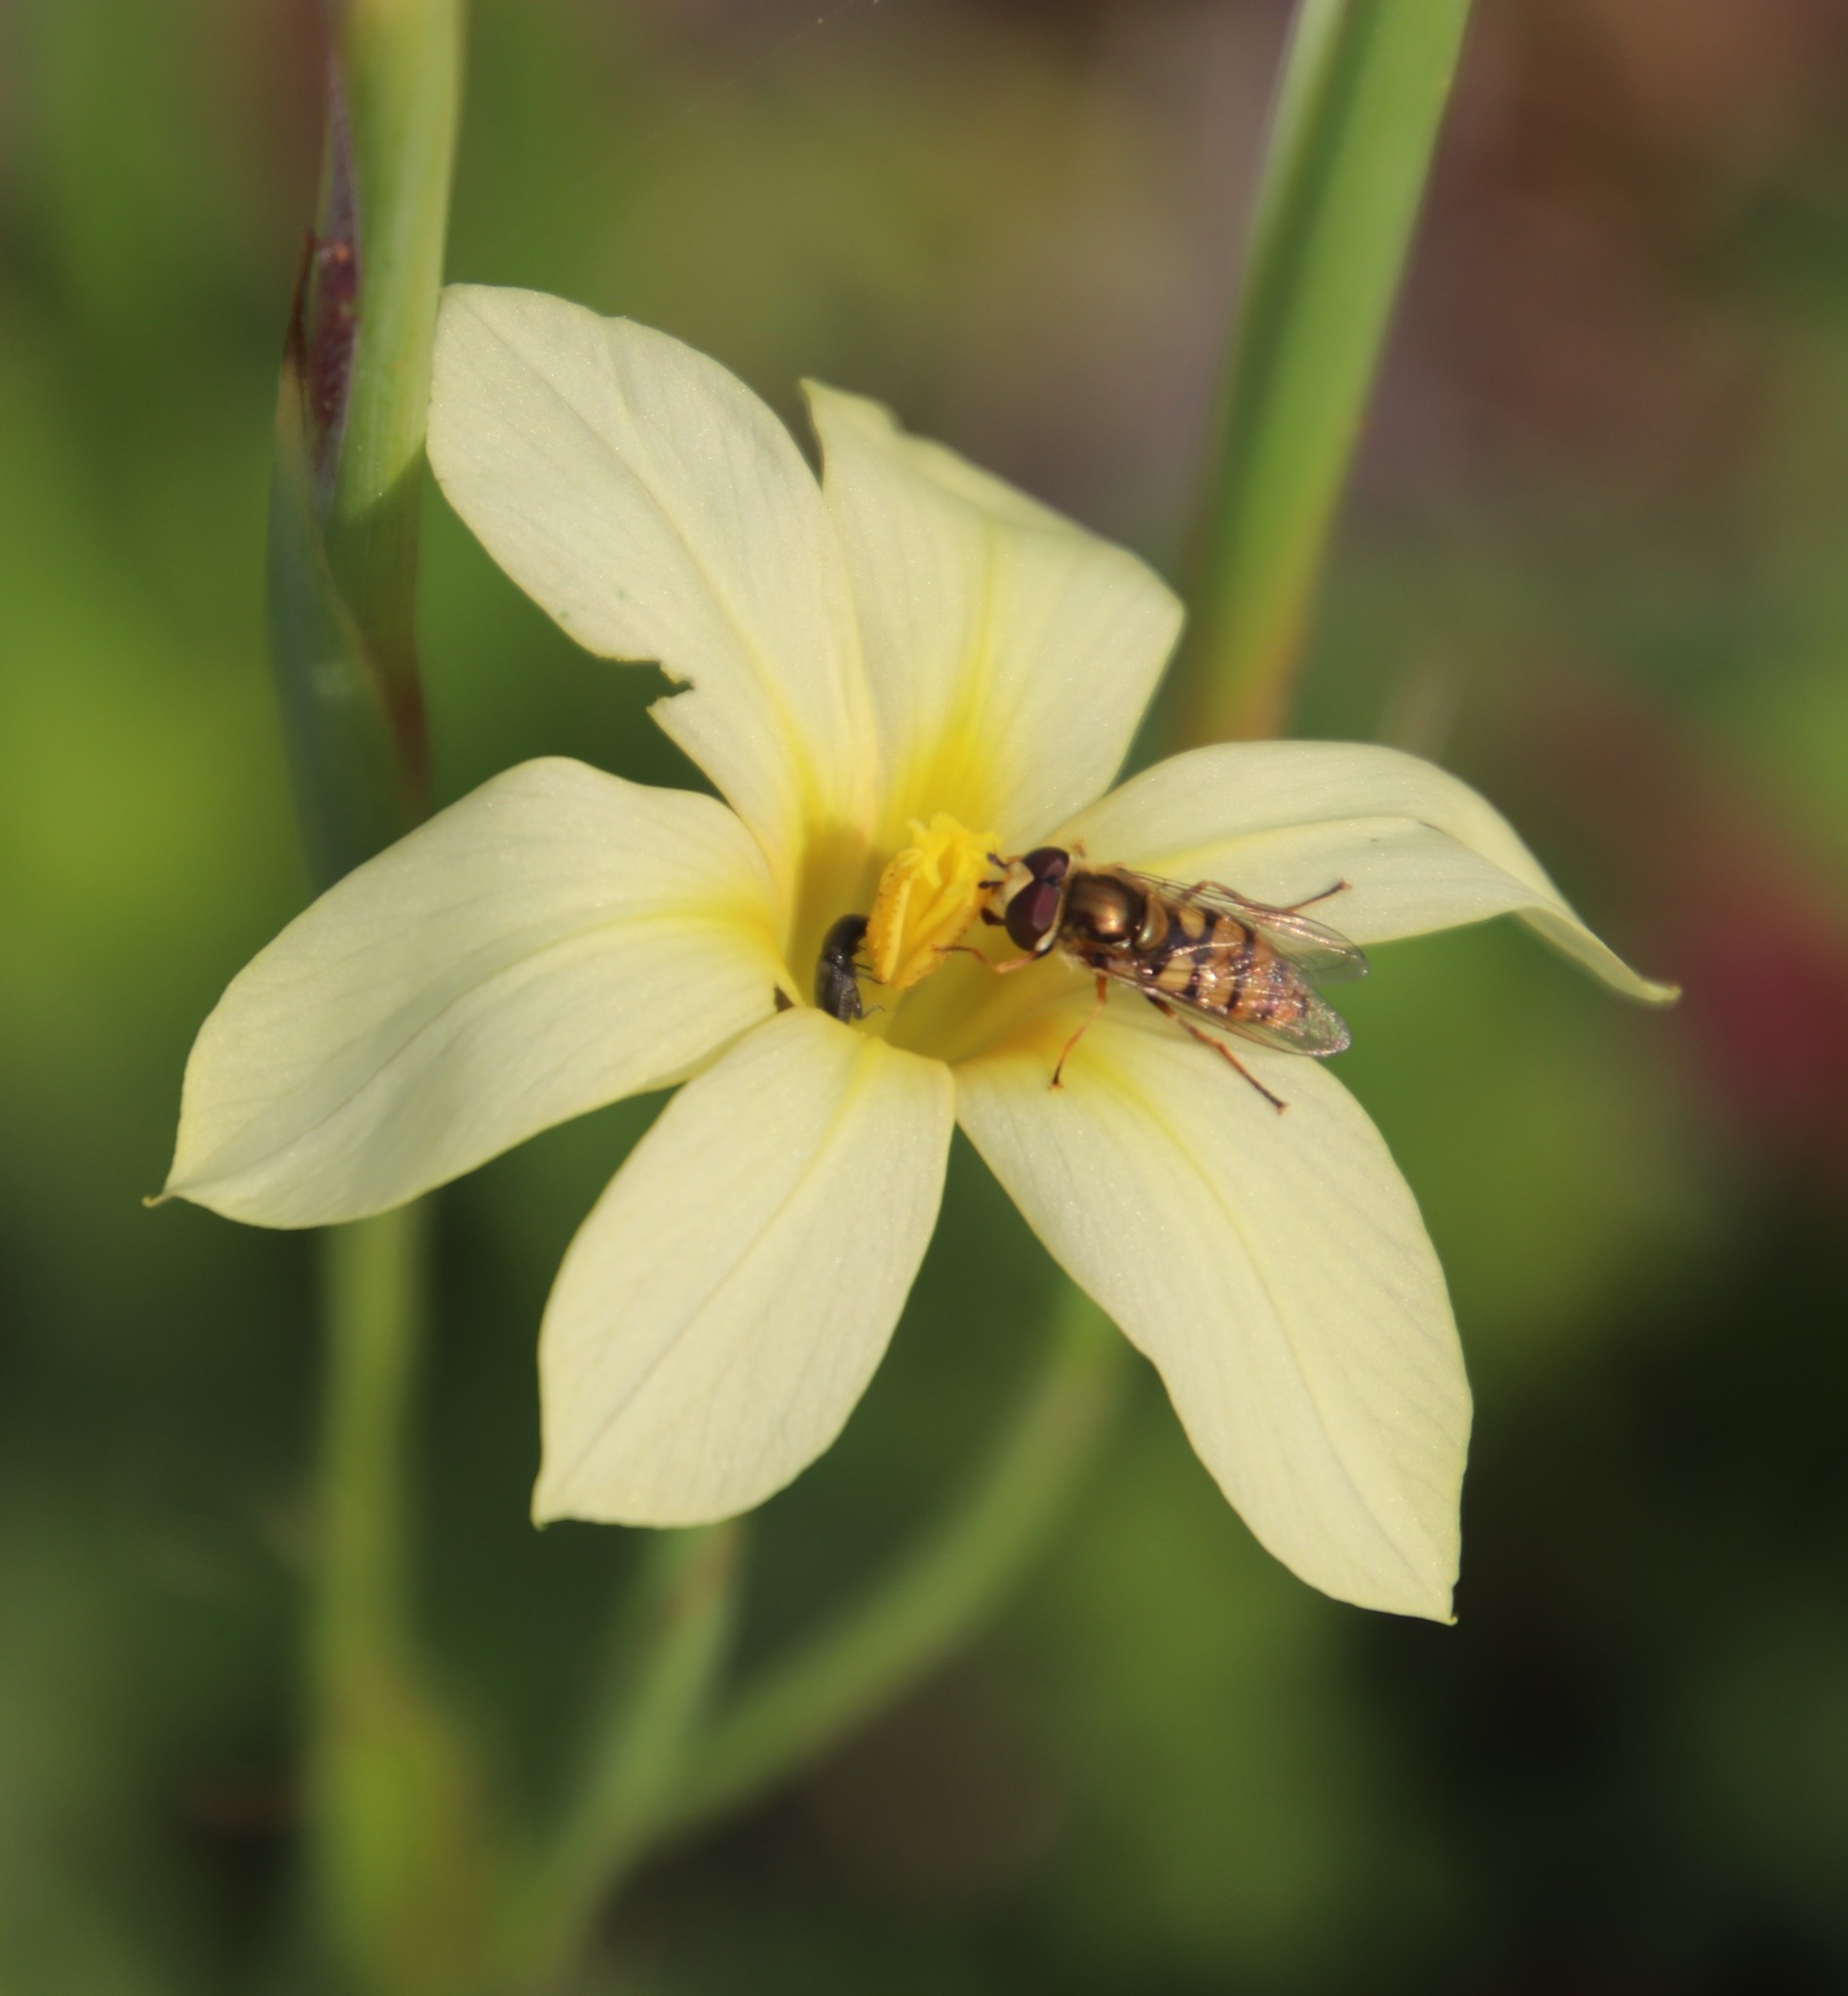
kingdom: Plantae
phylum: Tracheophyta
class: Liliopsida
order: Asparagales
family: Iridaceae
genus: Moraea
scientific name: Moraea collina
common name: Cape-tulip
